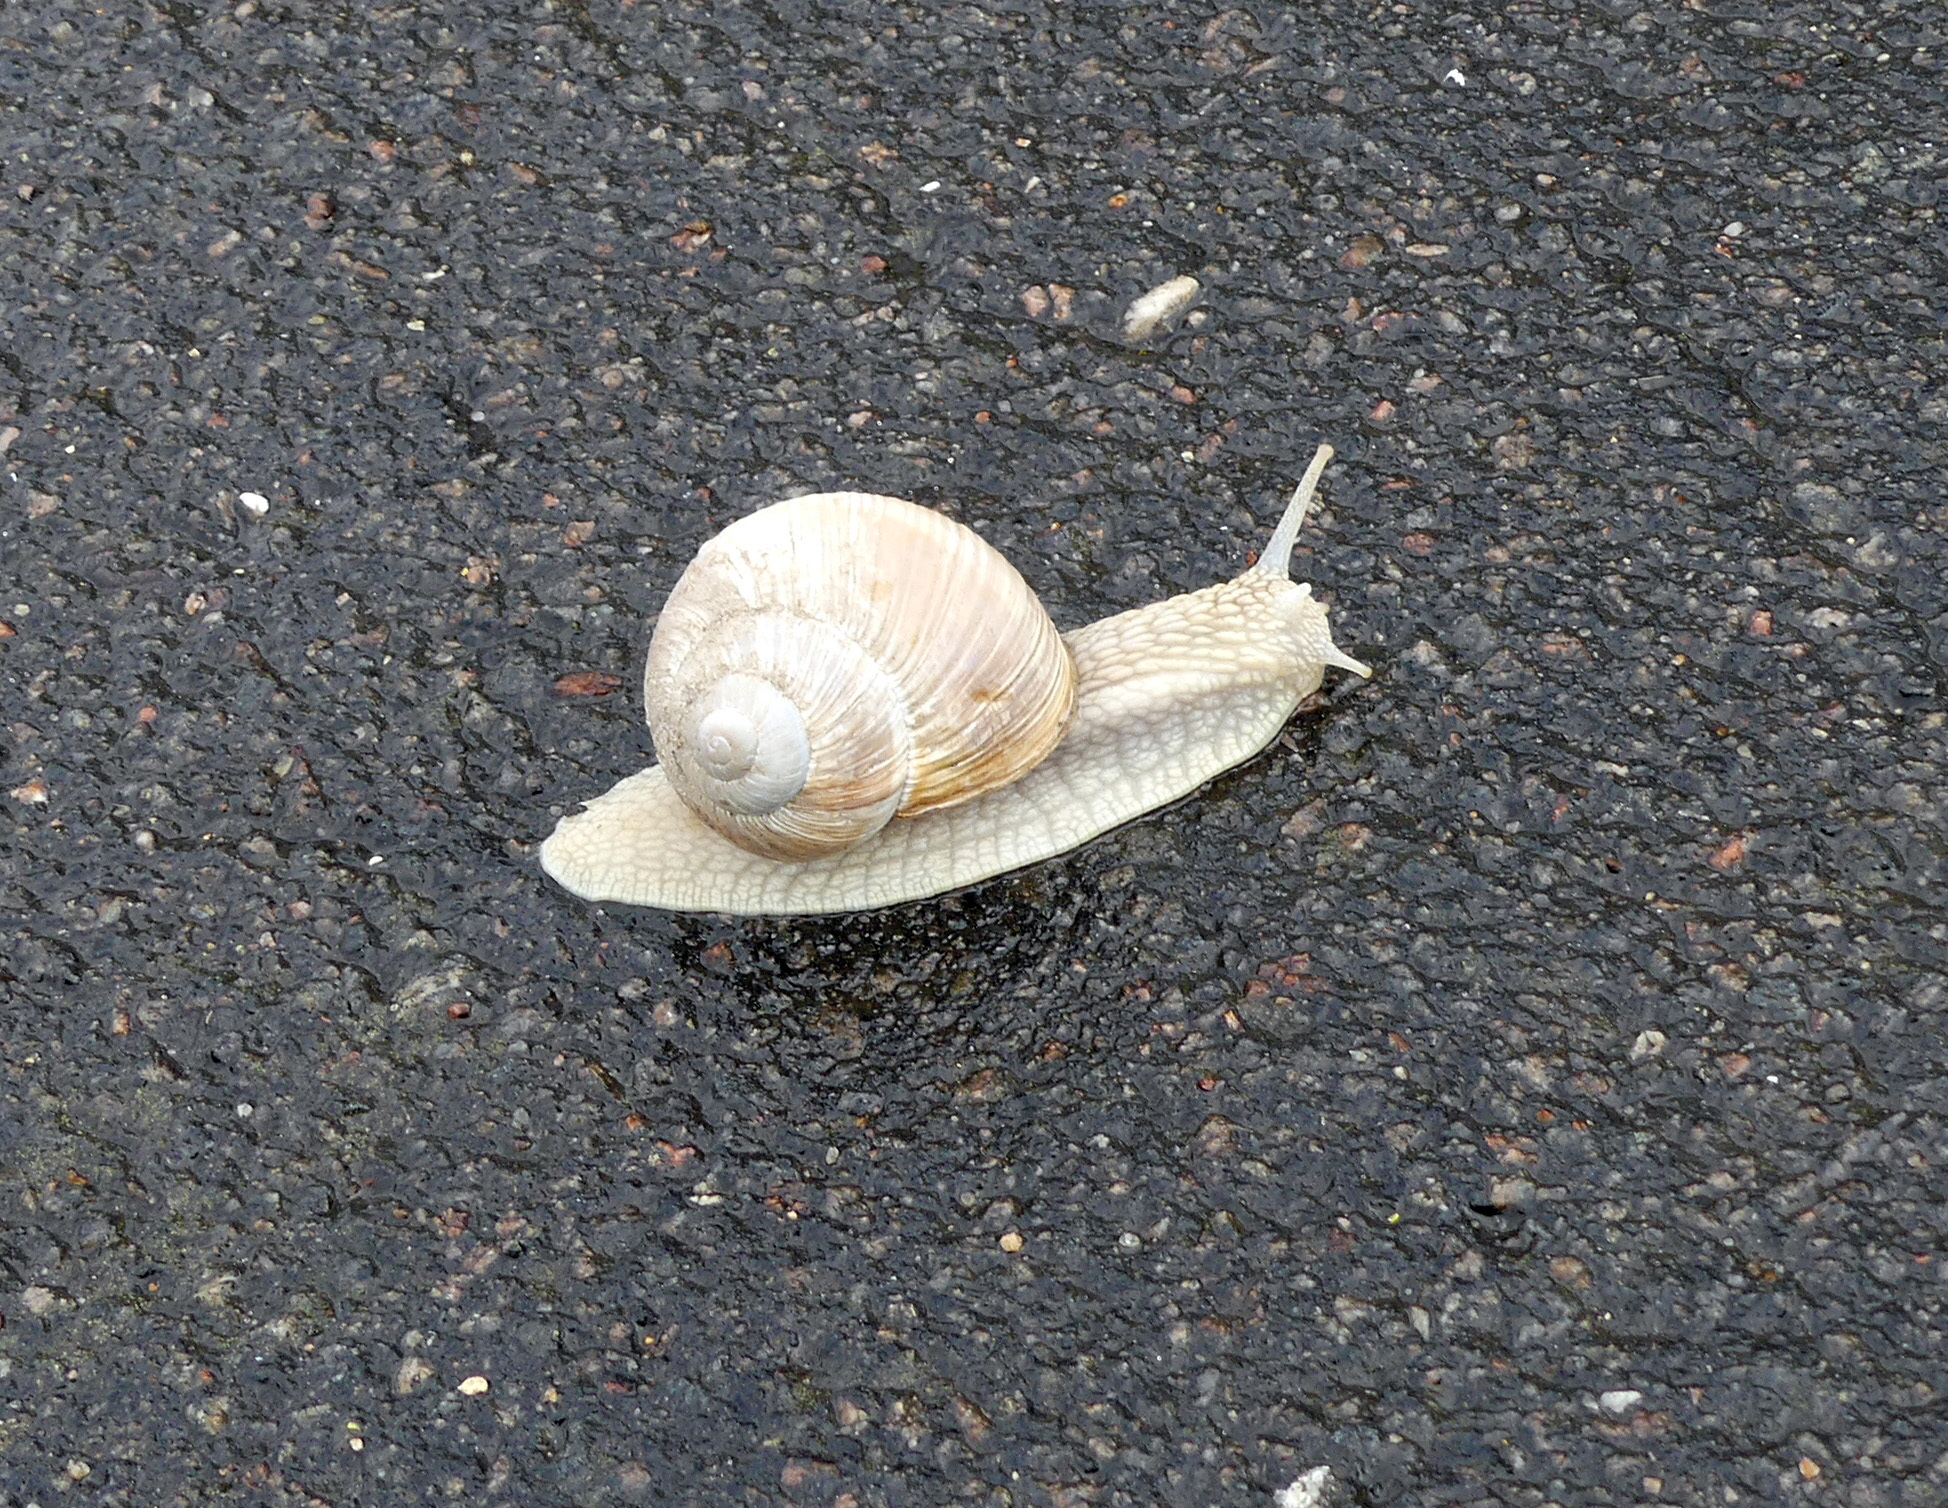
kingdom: Animalia
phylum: Mollusca
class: Gastropoda
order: Stylommatophora
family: Helicidae
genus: Helix
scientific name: Helix pomatia
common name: Roman snail
